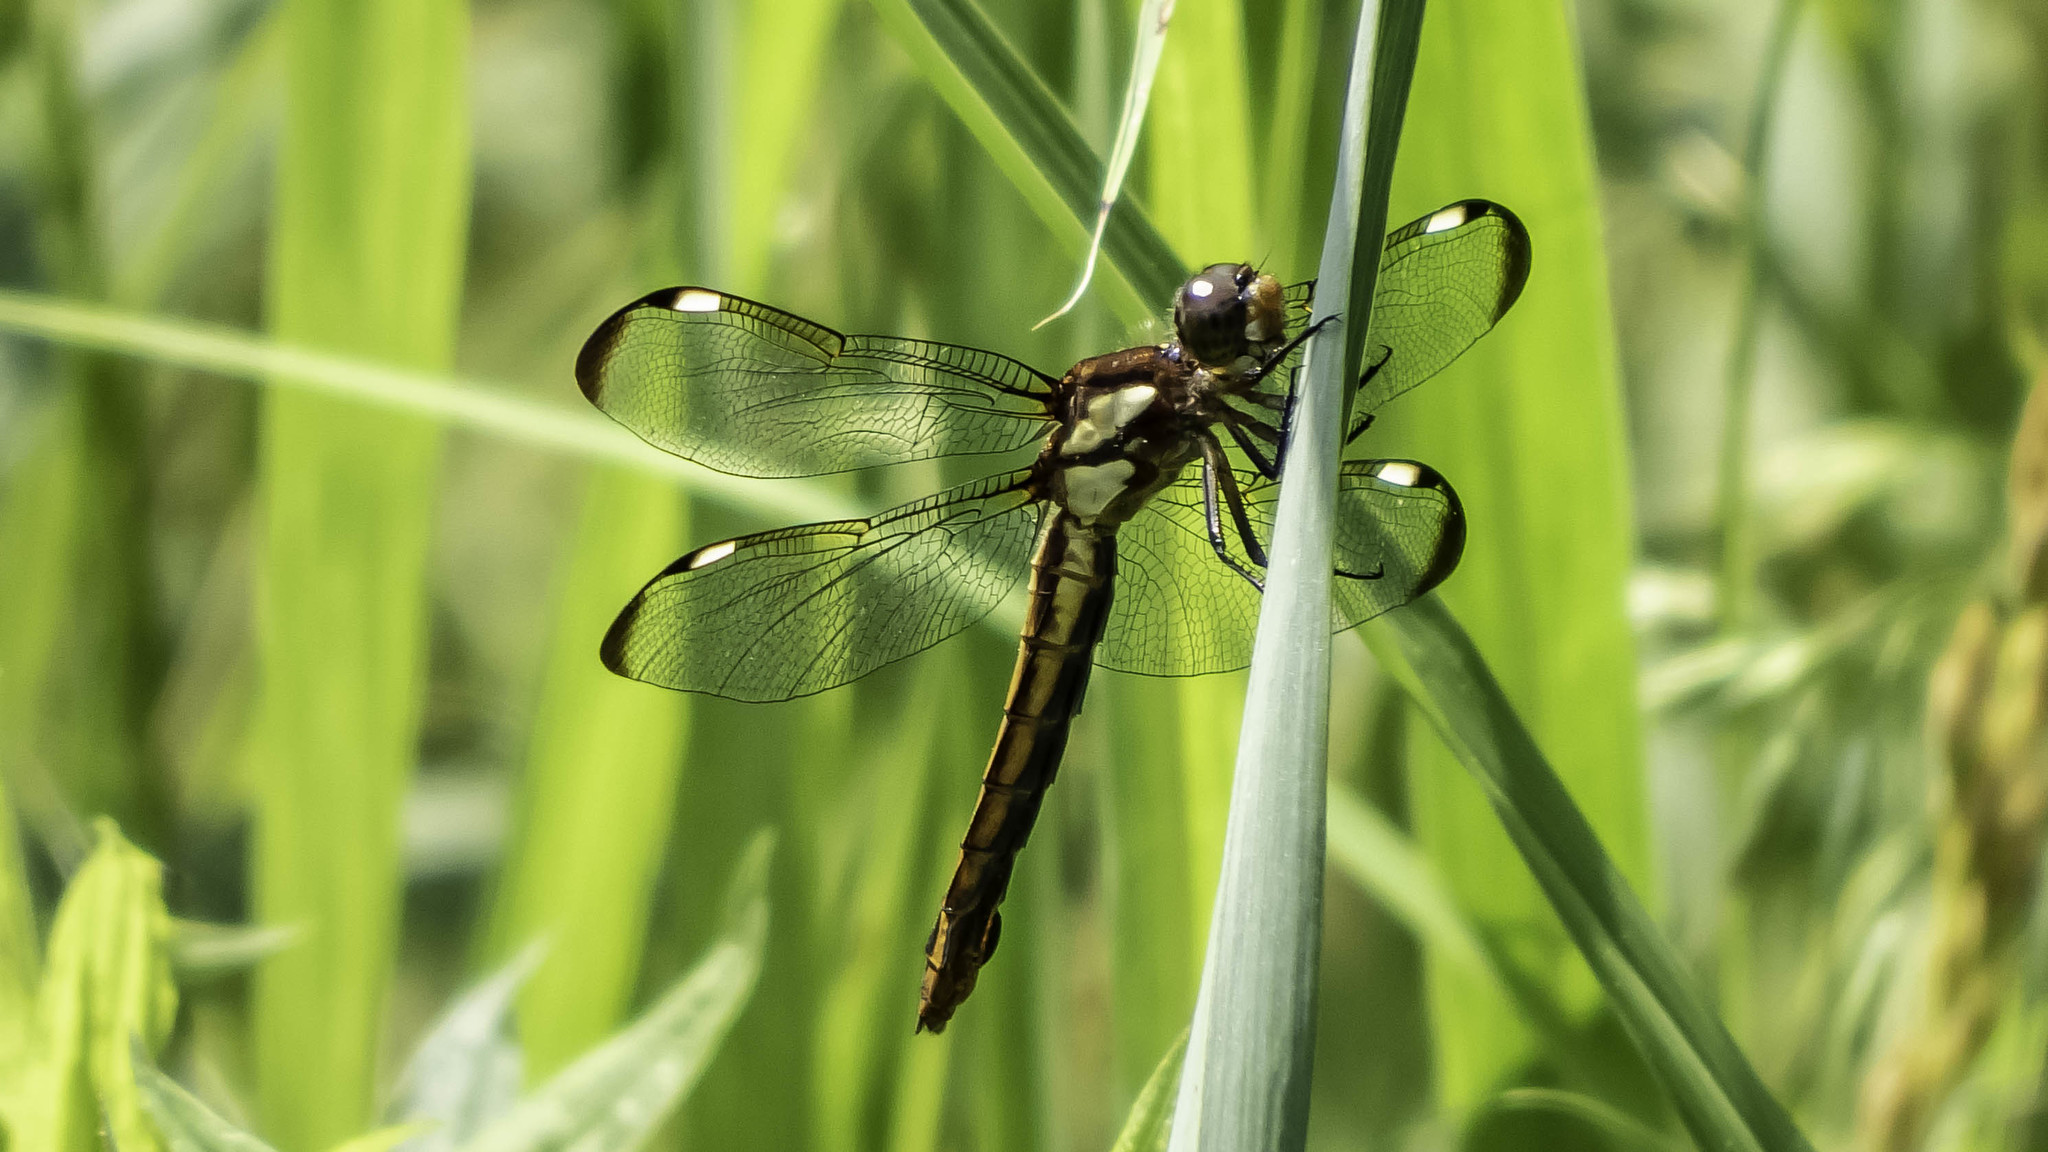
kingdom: Animalia
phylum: Arthropoda
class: Insecta
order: Odonata
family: Libellulidae
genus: Libellula
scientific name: Libellula cyanea
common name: Spangled skimmer
